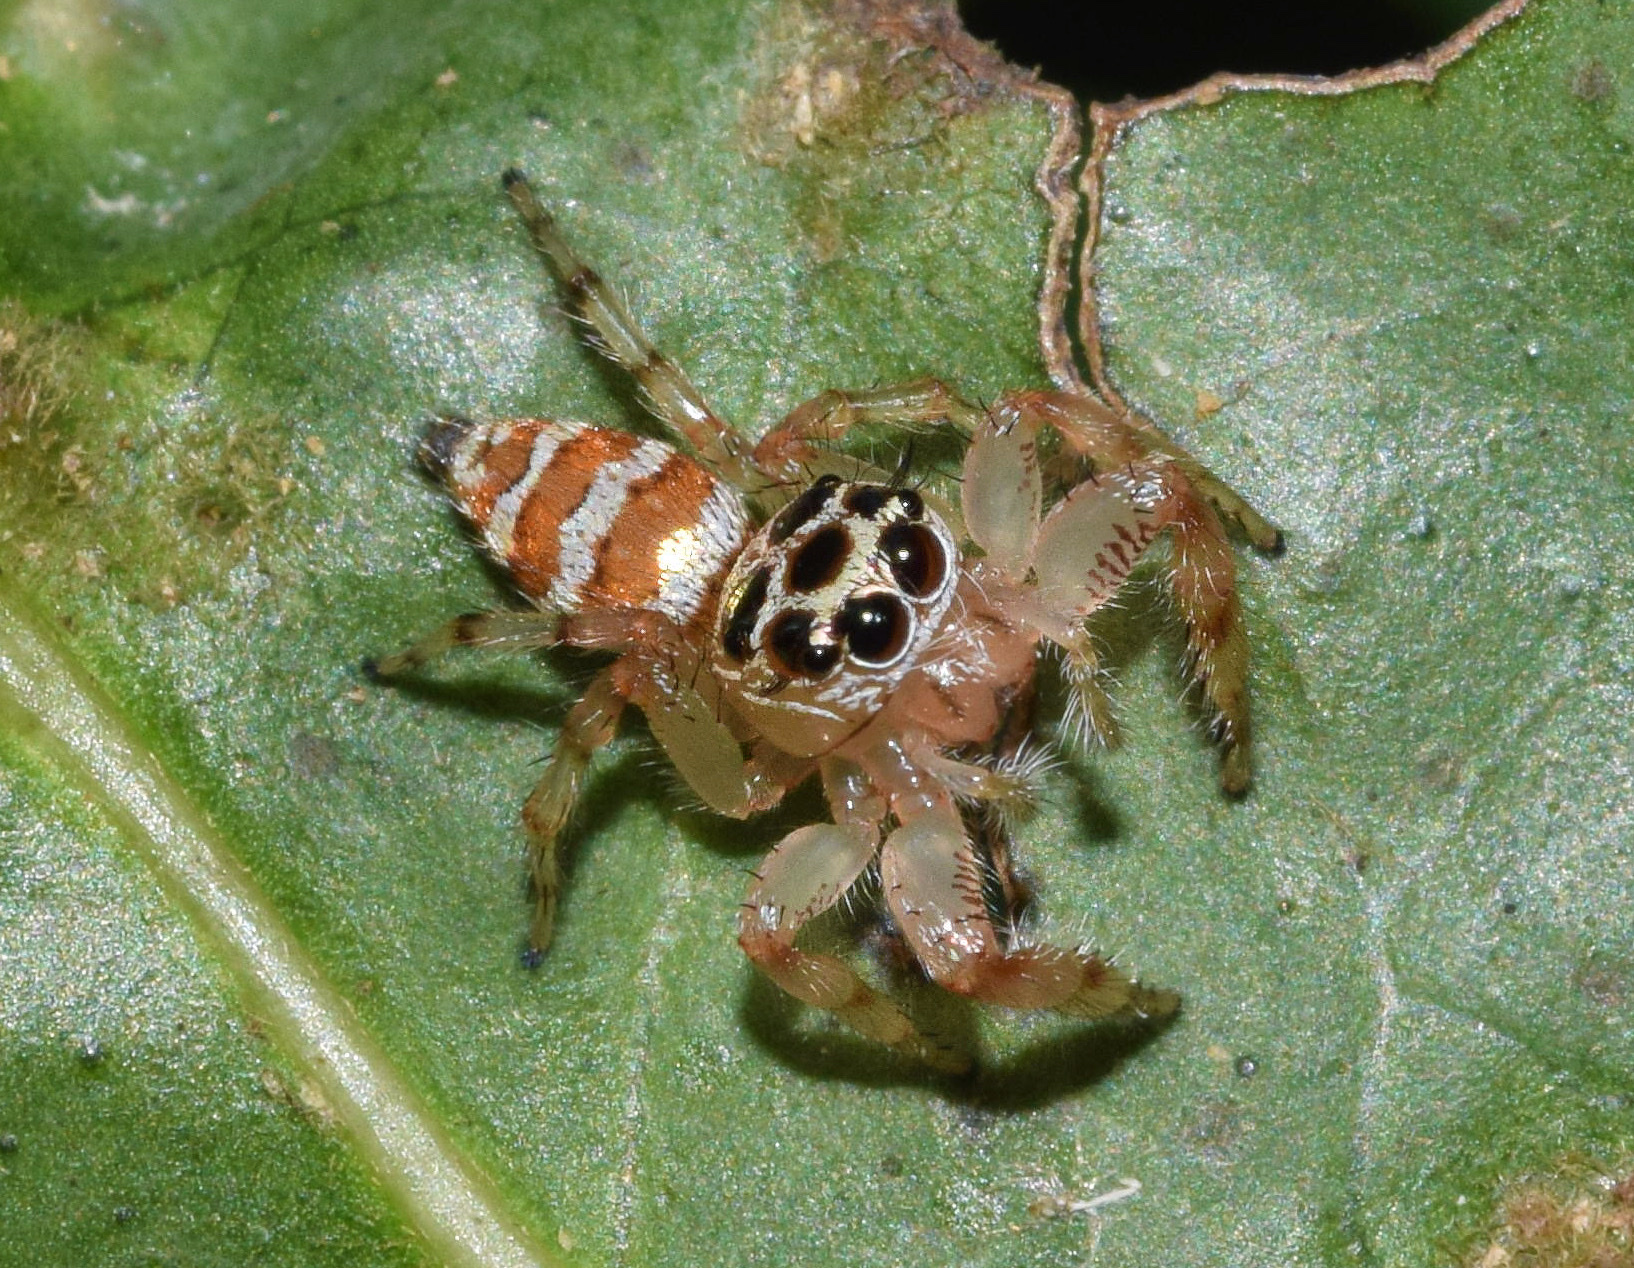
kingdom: Animalia
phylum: Arthropoda
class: Arachnida
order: Araneae
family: Salticidae
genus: Thyene
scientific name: Thyene natalii
